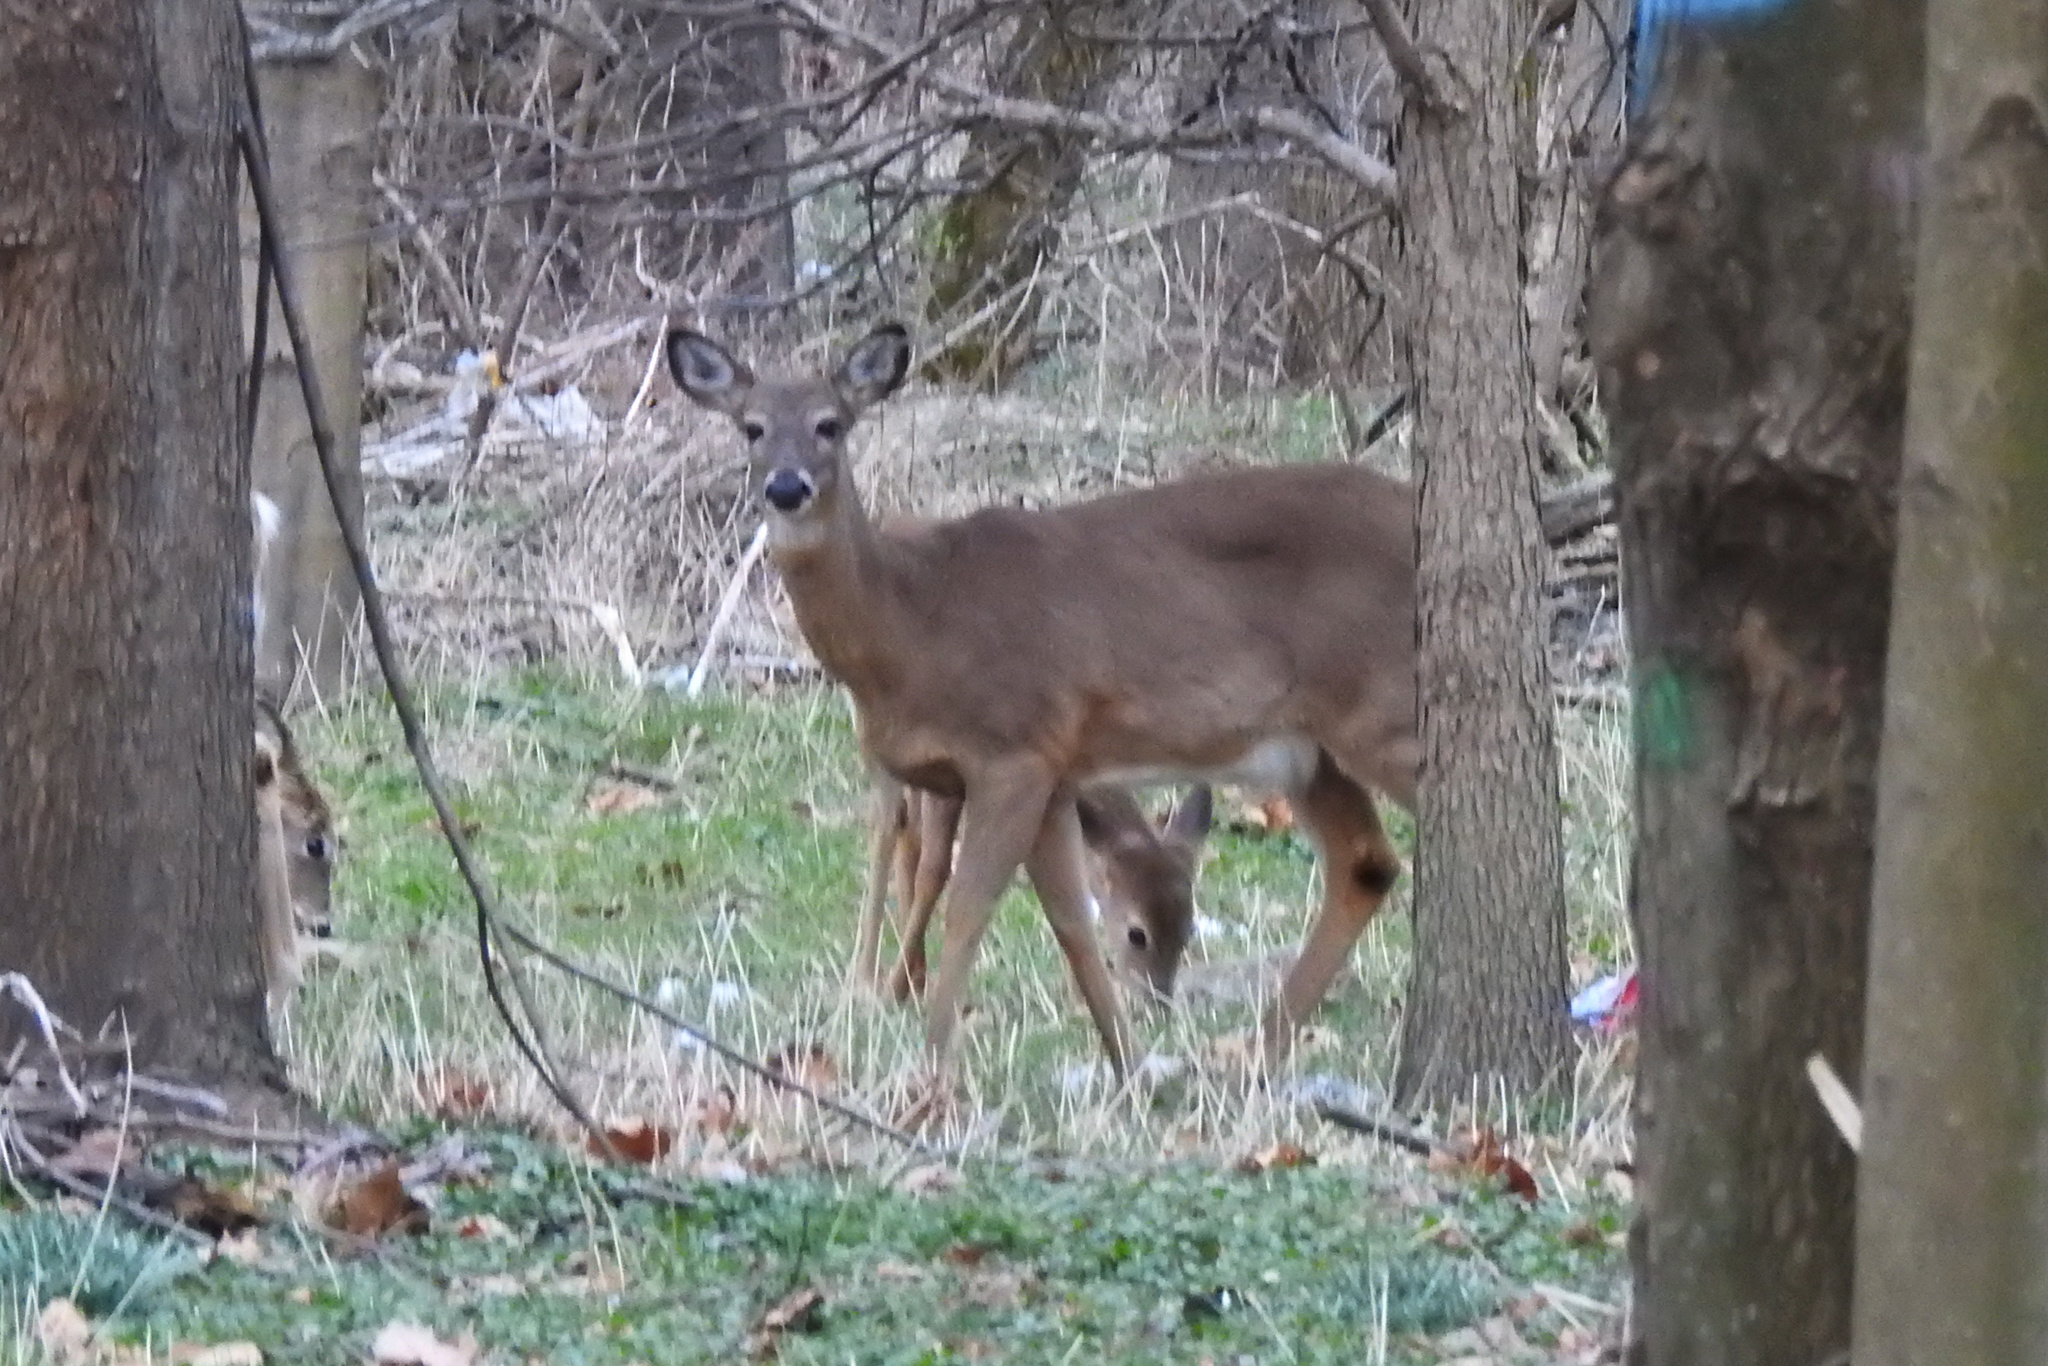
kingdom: Animalia
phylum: Chordata
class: Mammalia
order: Artiodactyla
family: Cervidae
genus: Odocoileus
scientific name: Odocoileus virginianus
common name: White-tailed deer
